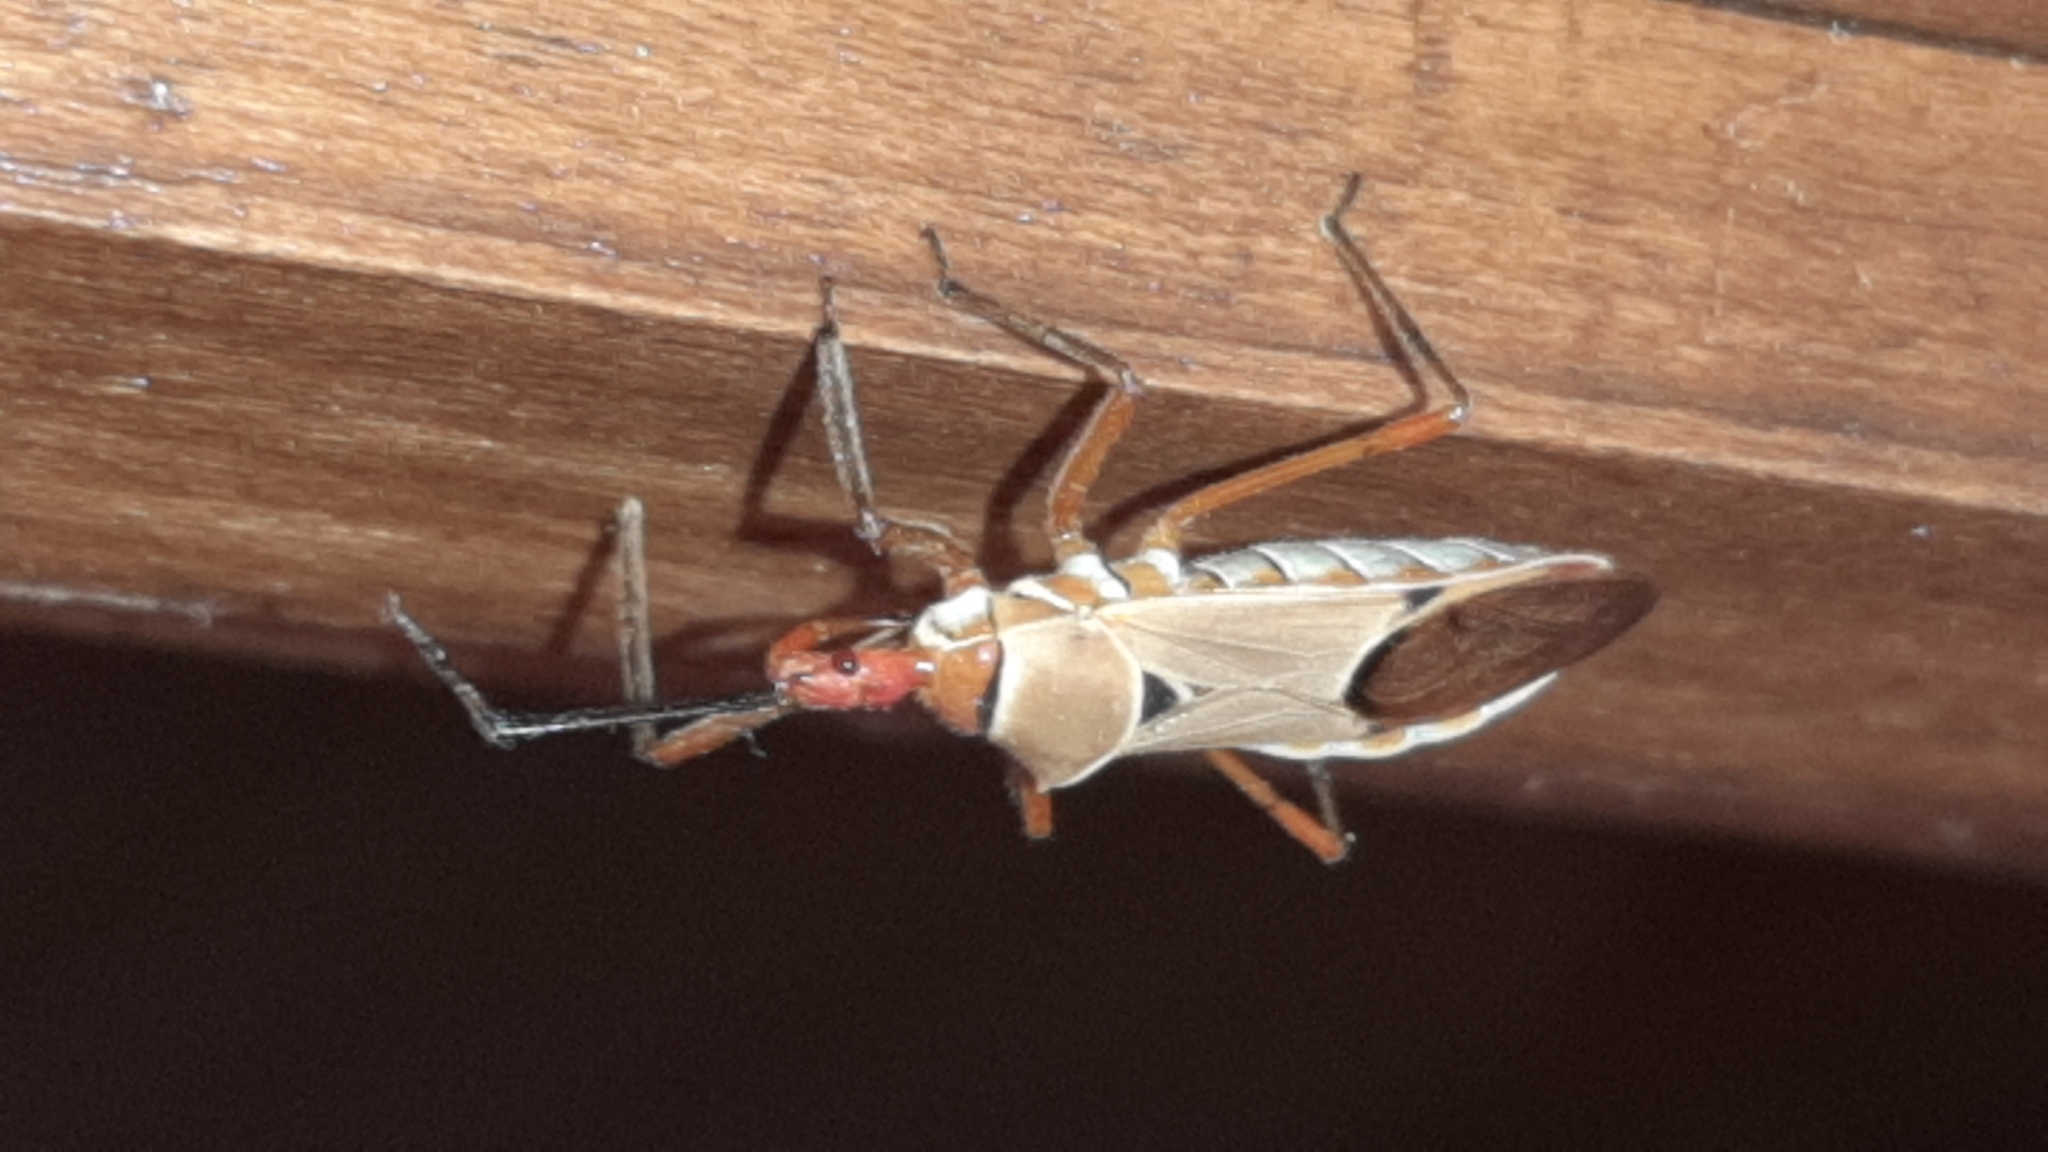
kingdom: Animalia
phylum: Arthropoda
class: Insecta
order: Hemiptera
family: Reduviidae
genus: Zelus
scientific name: Zelus ruficeps
